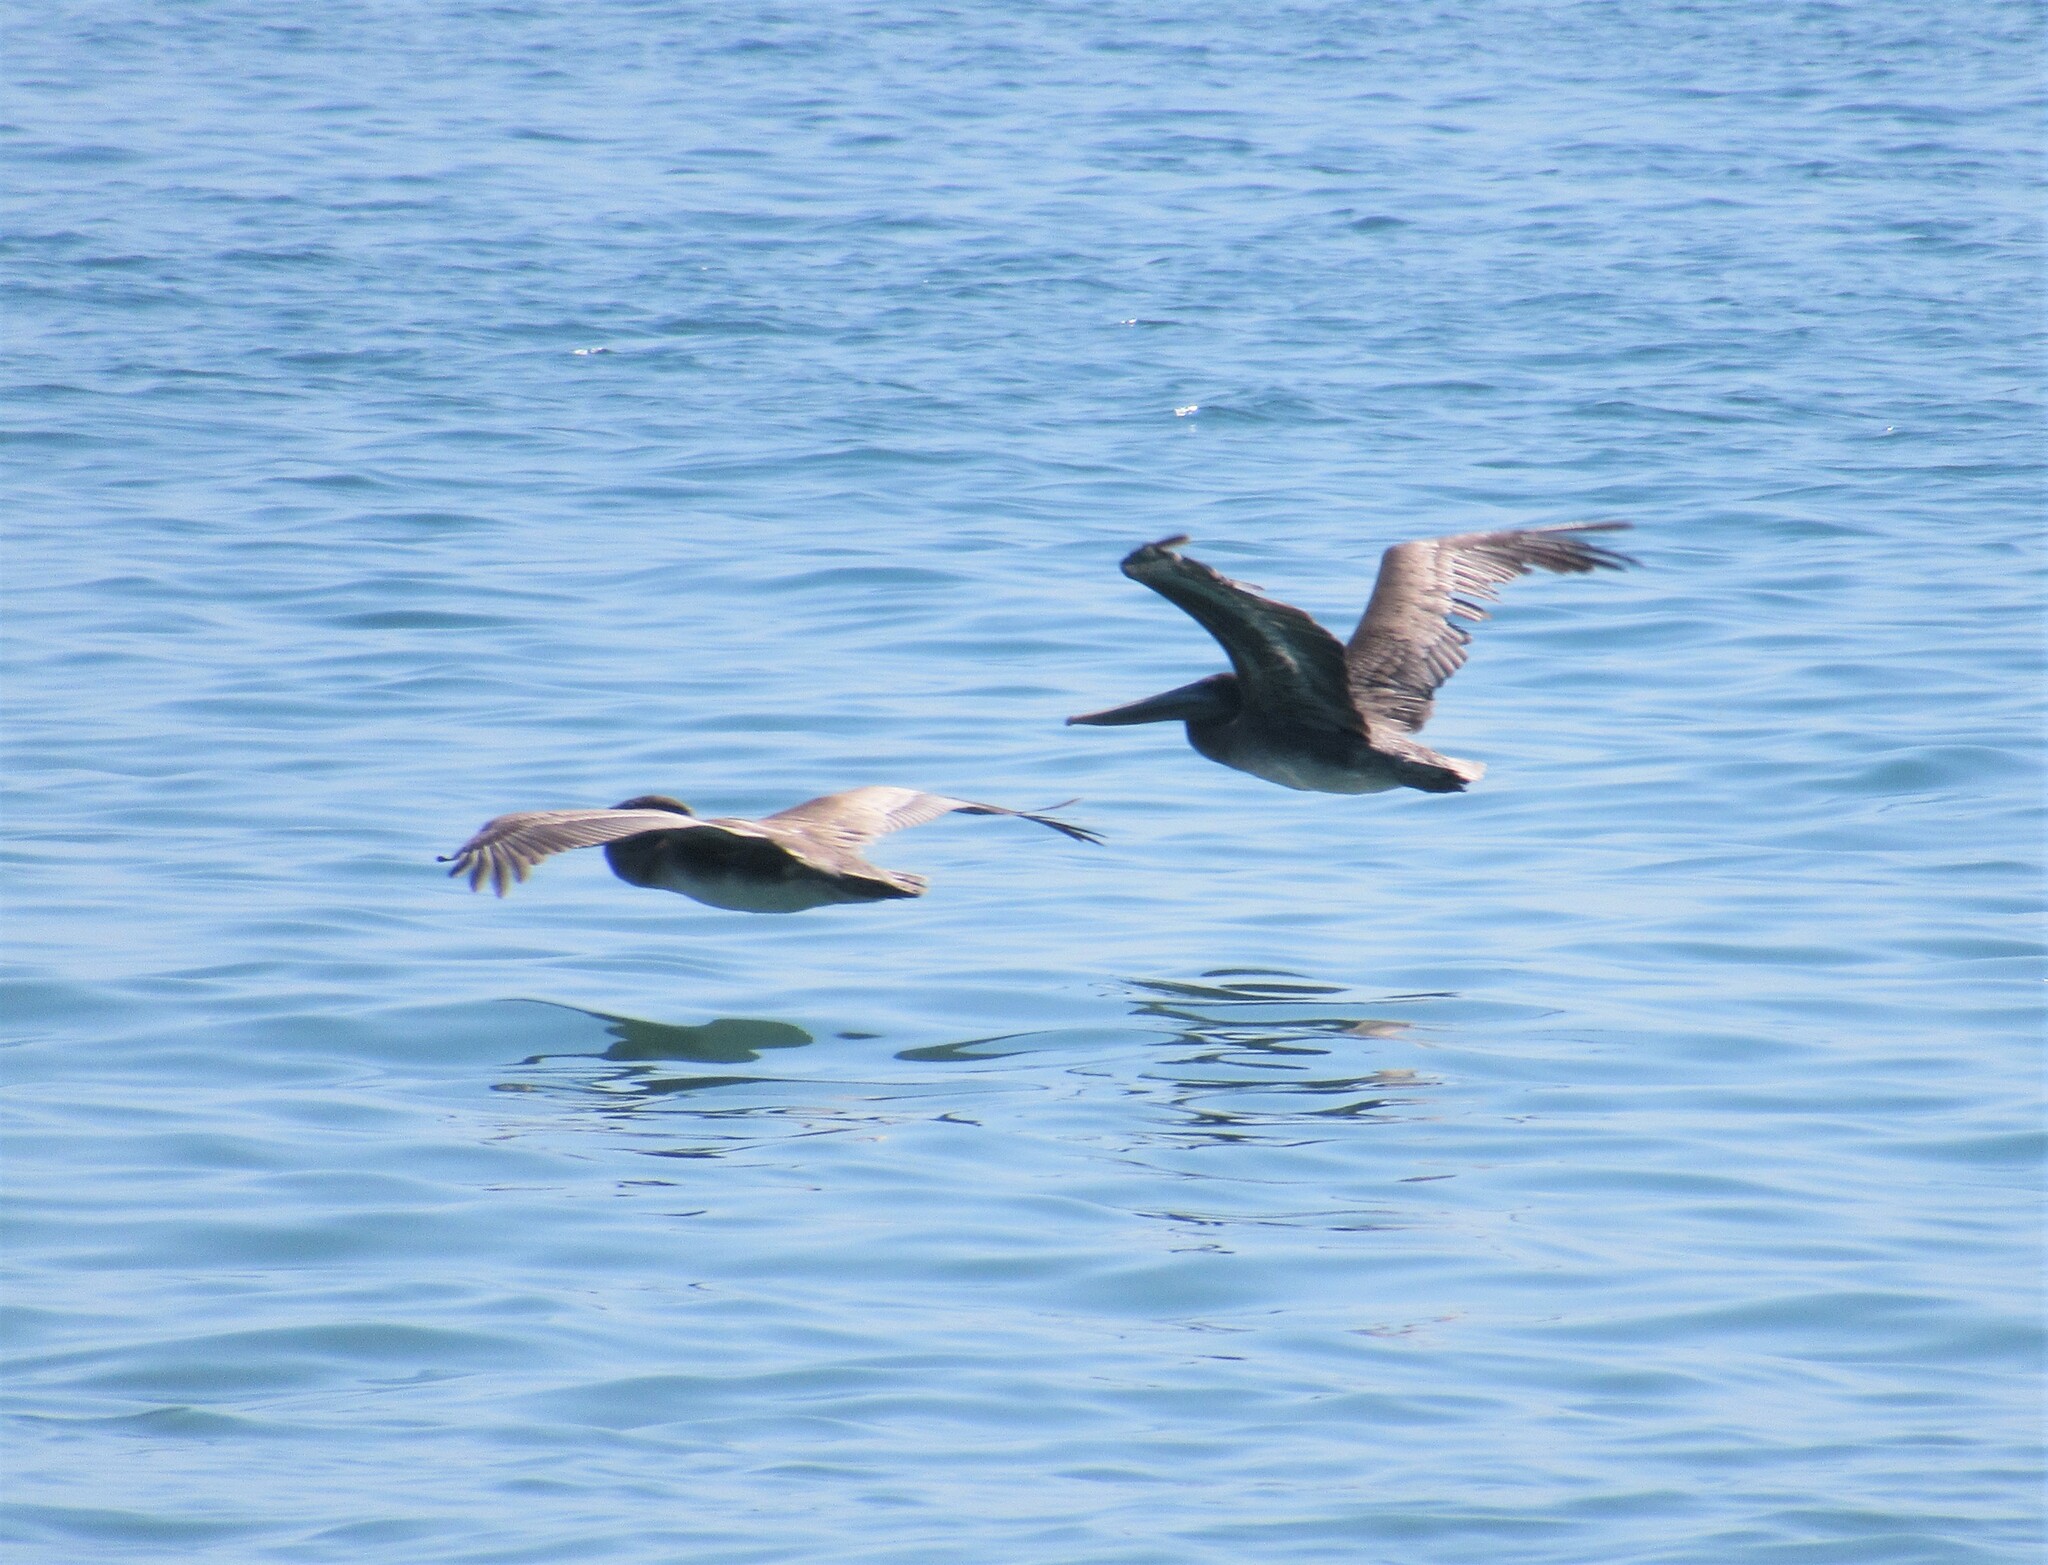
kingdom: Animalia
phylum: Chordata
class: Aves
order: Pelecaniformes
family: Pelecanidae
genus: Pelecanus
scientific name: Pelecanus occidentalis
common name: Brown pelican
